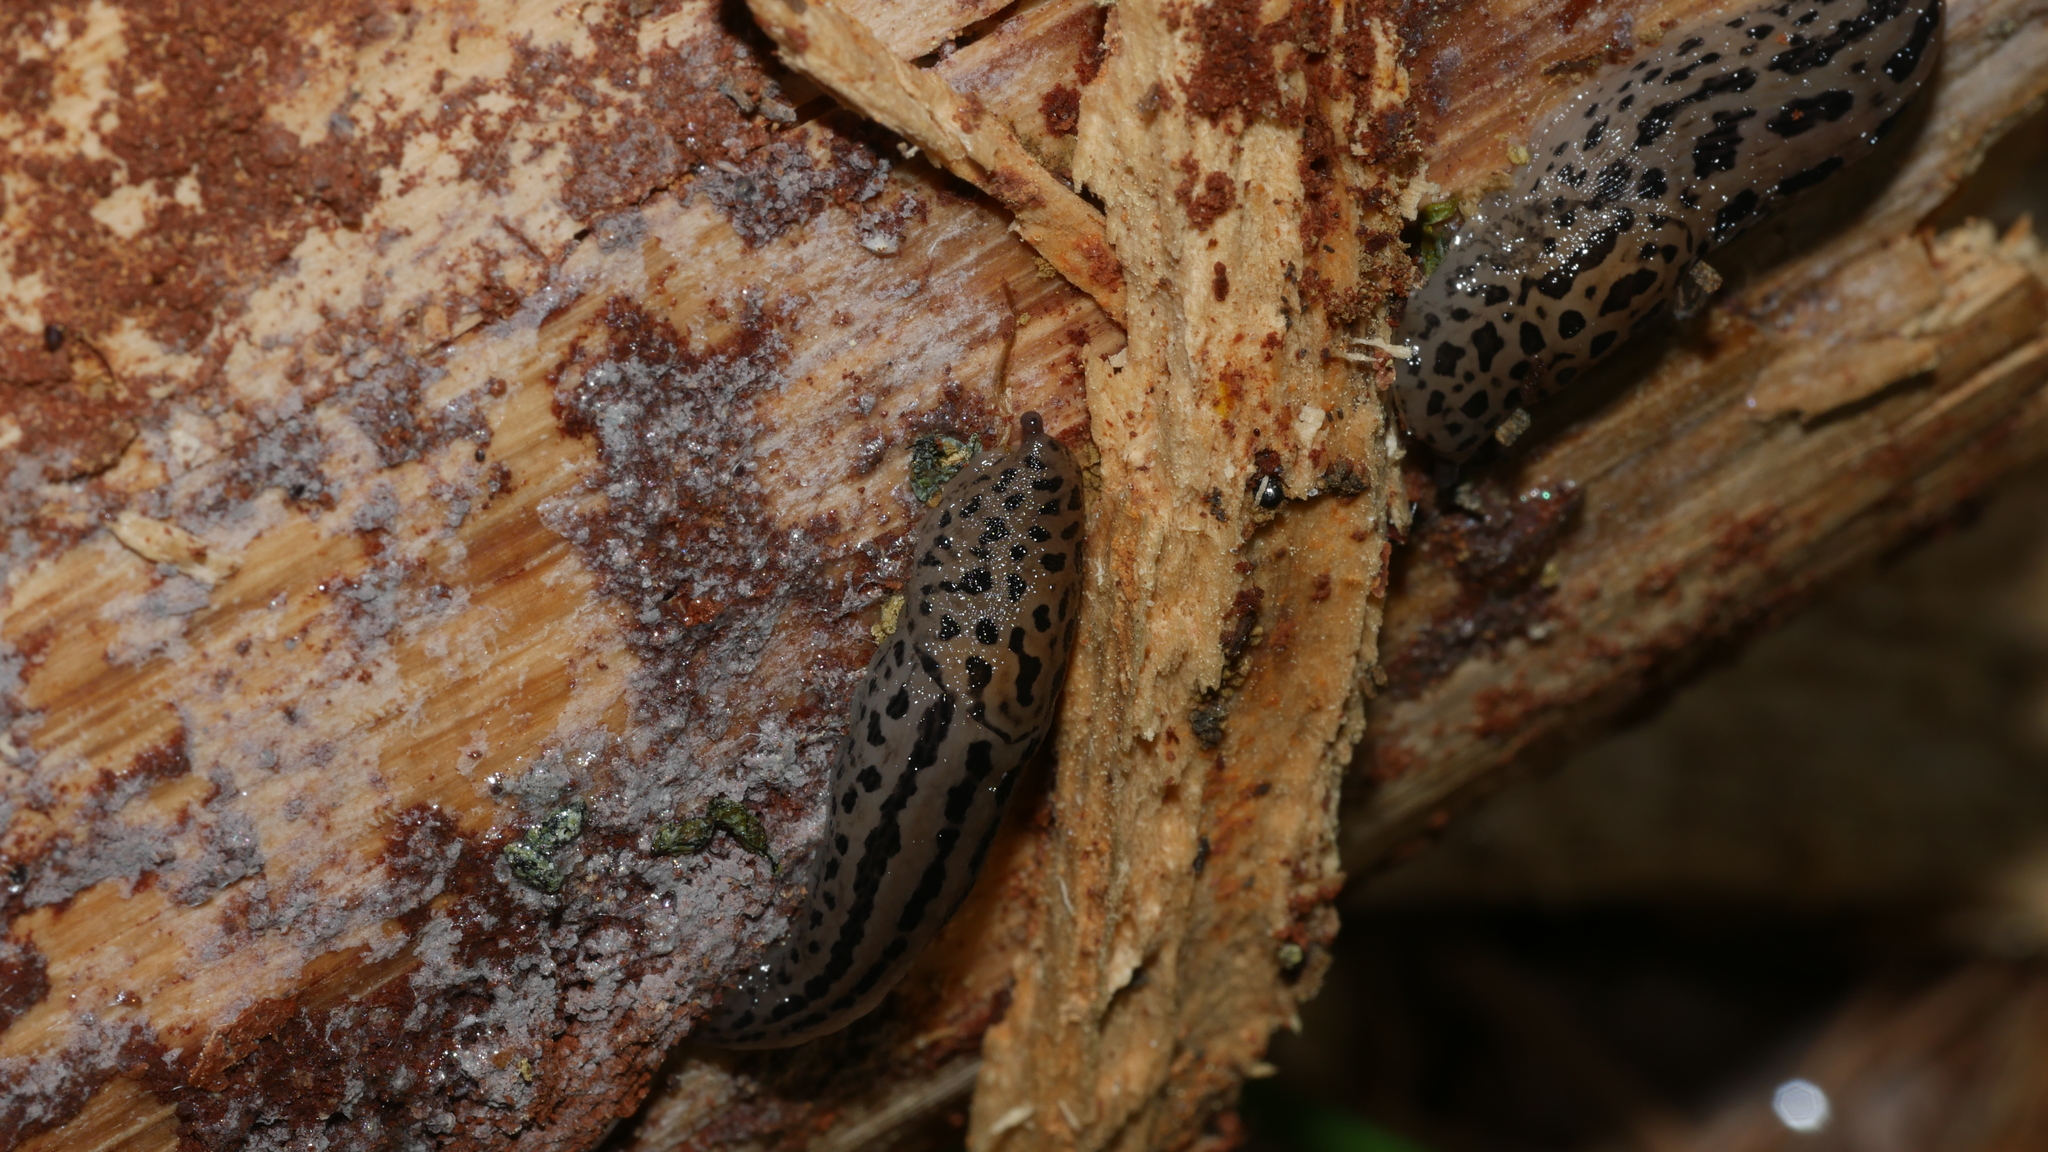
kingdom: Animalia
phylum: Mollusca
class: Gastropoda
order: Stylommatophora
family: Limacidae
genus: Limax
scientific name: Limax maximus
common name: Great grey slug
